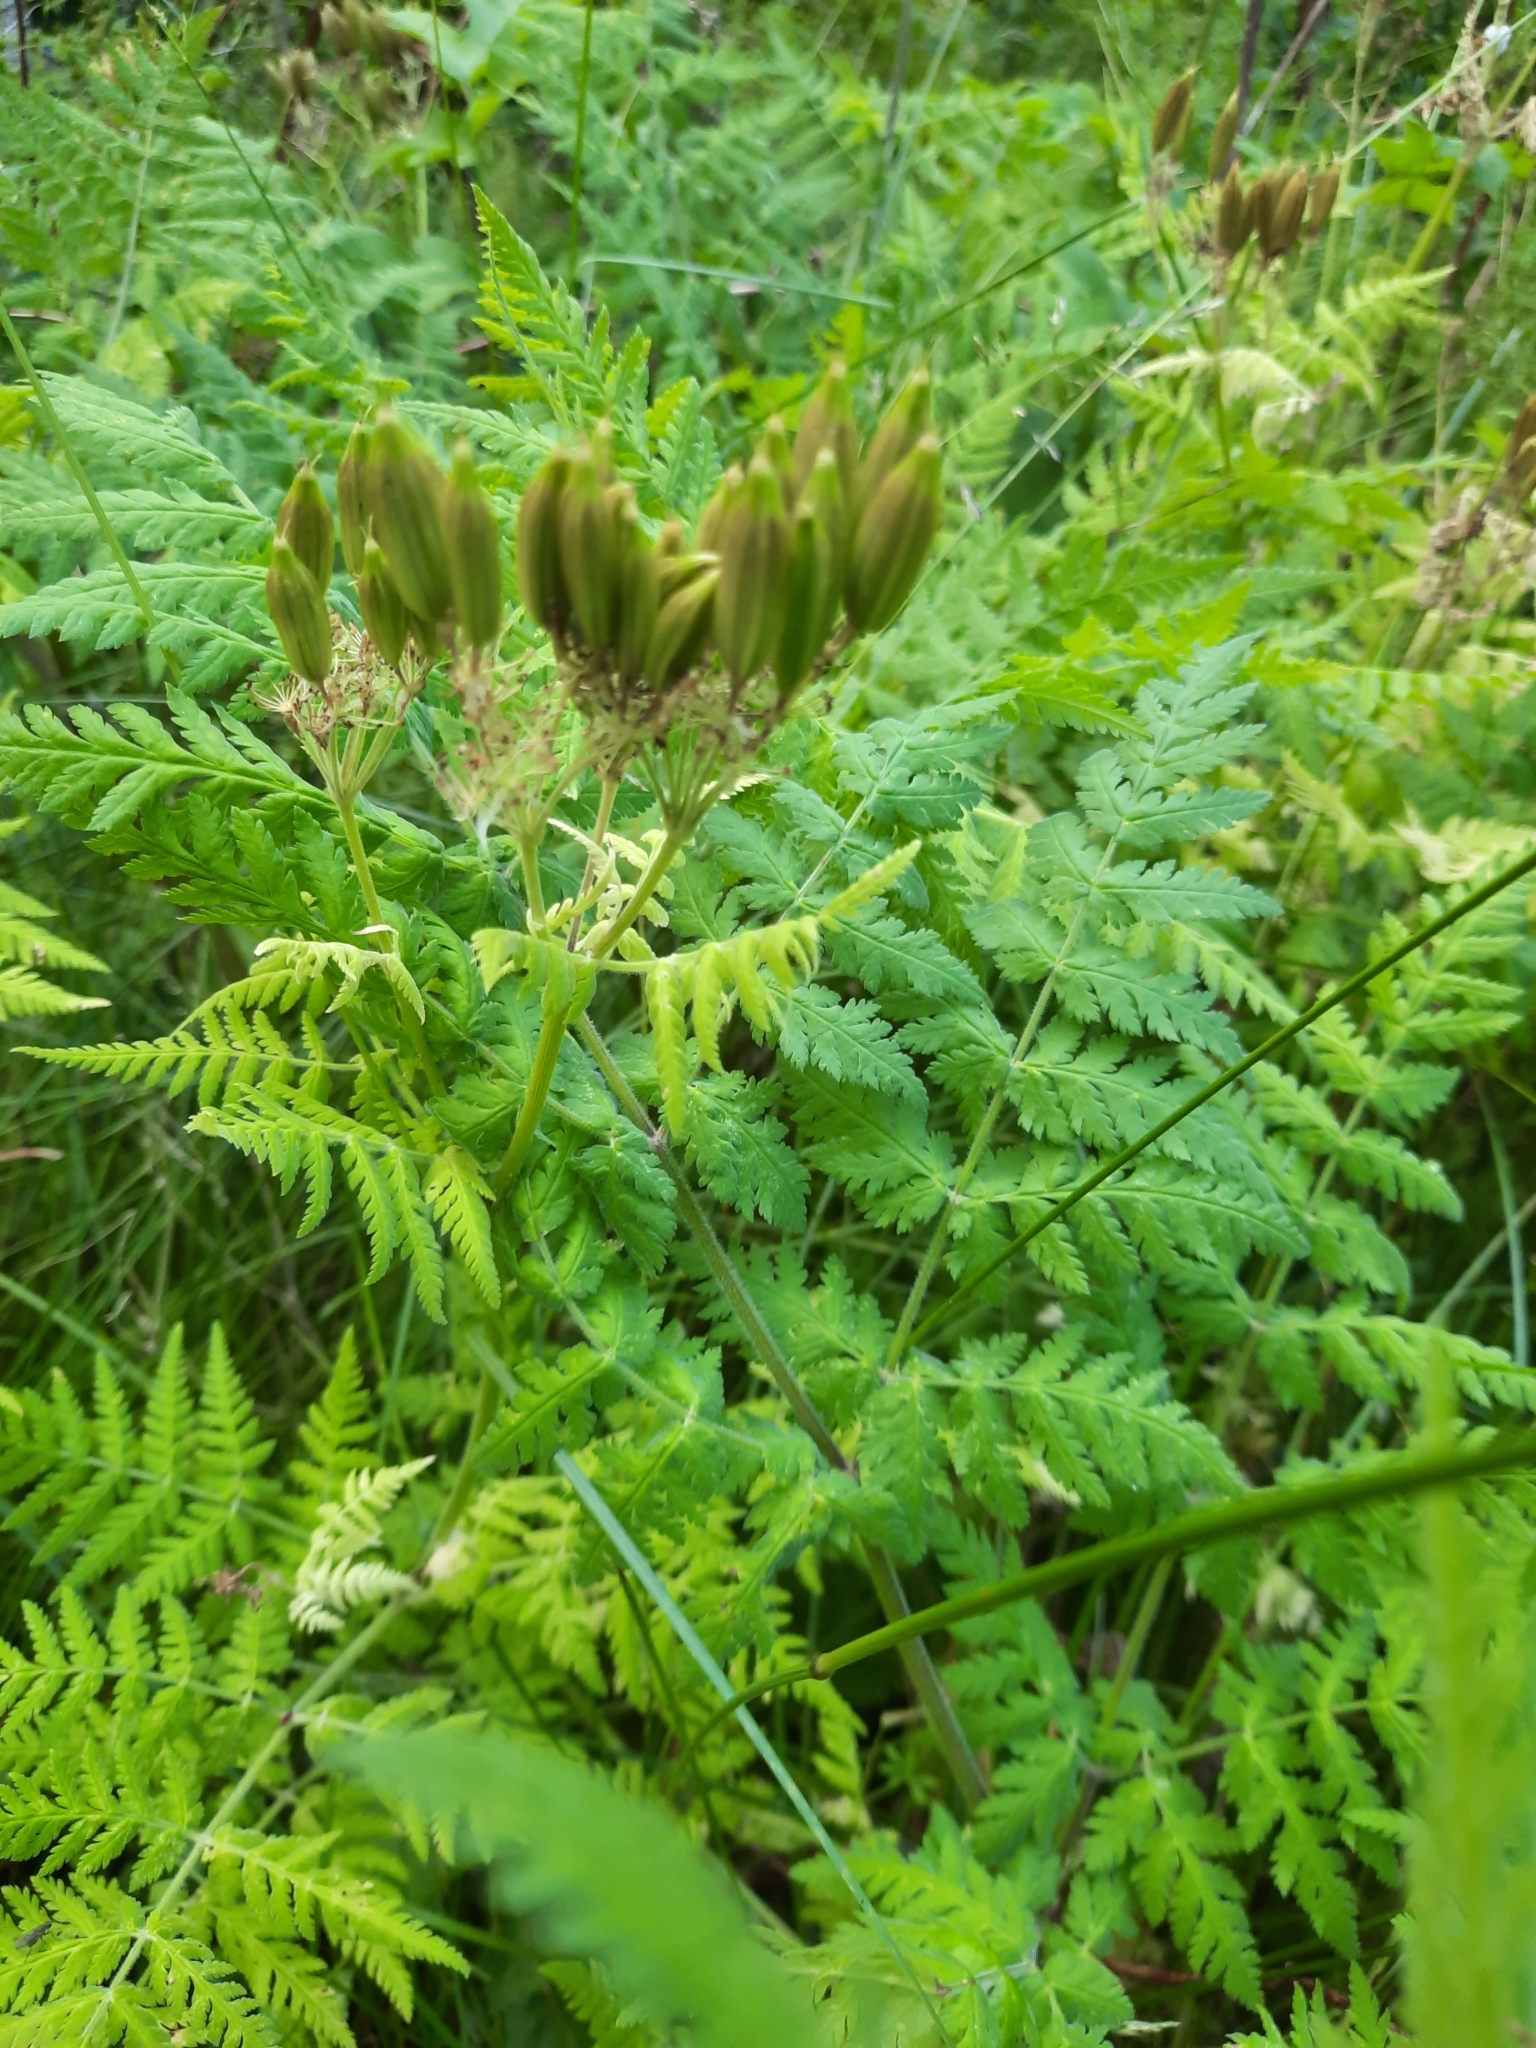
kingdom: Plantae
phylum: Tracheophyta
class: Magnoliopsida
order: Apiales
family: Apiaceae
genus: Myrrhis
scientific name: Myrrhis odorata
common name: Sweet cicely
